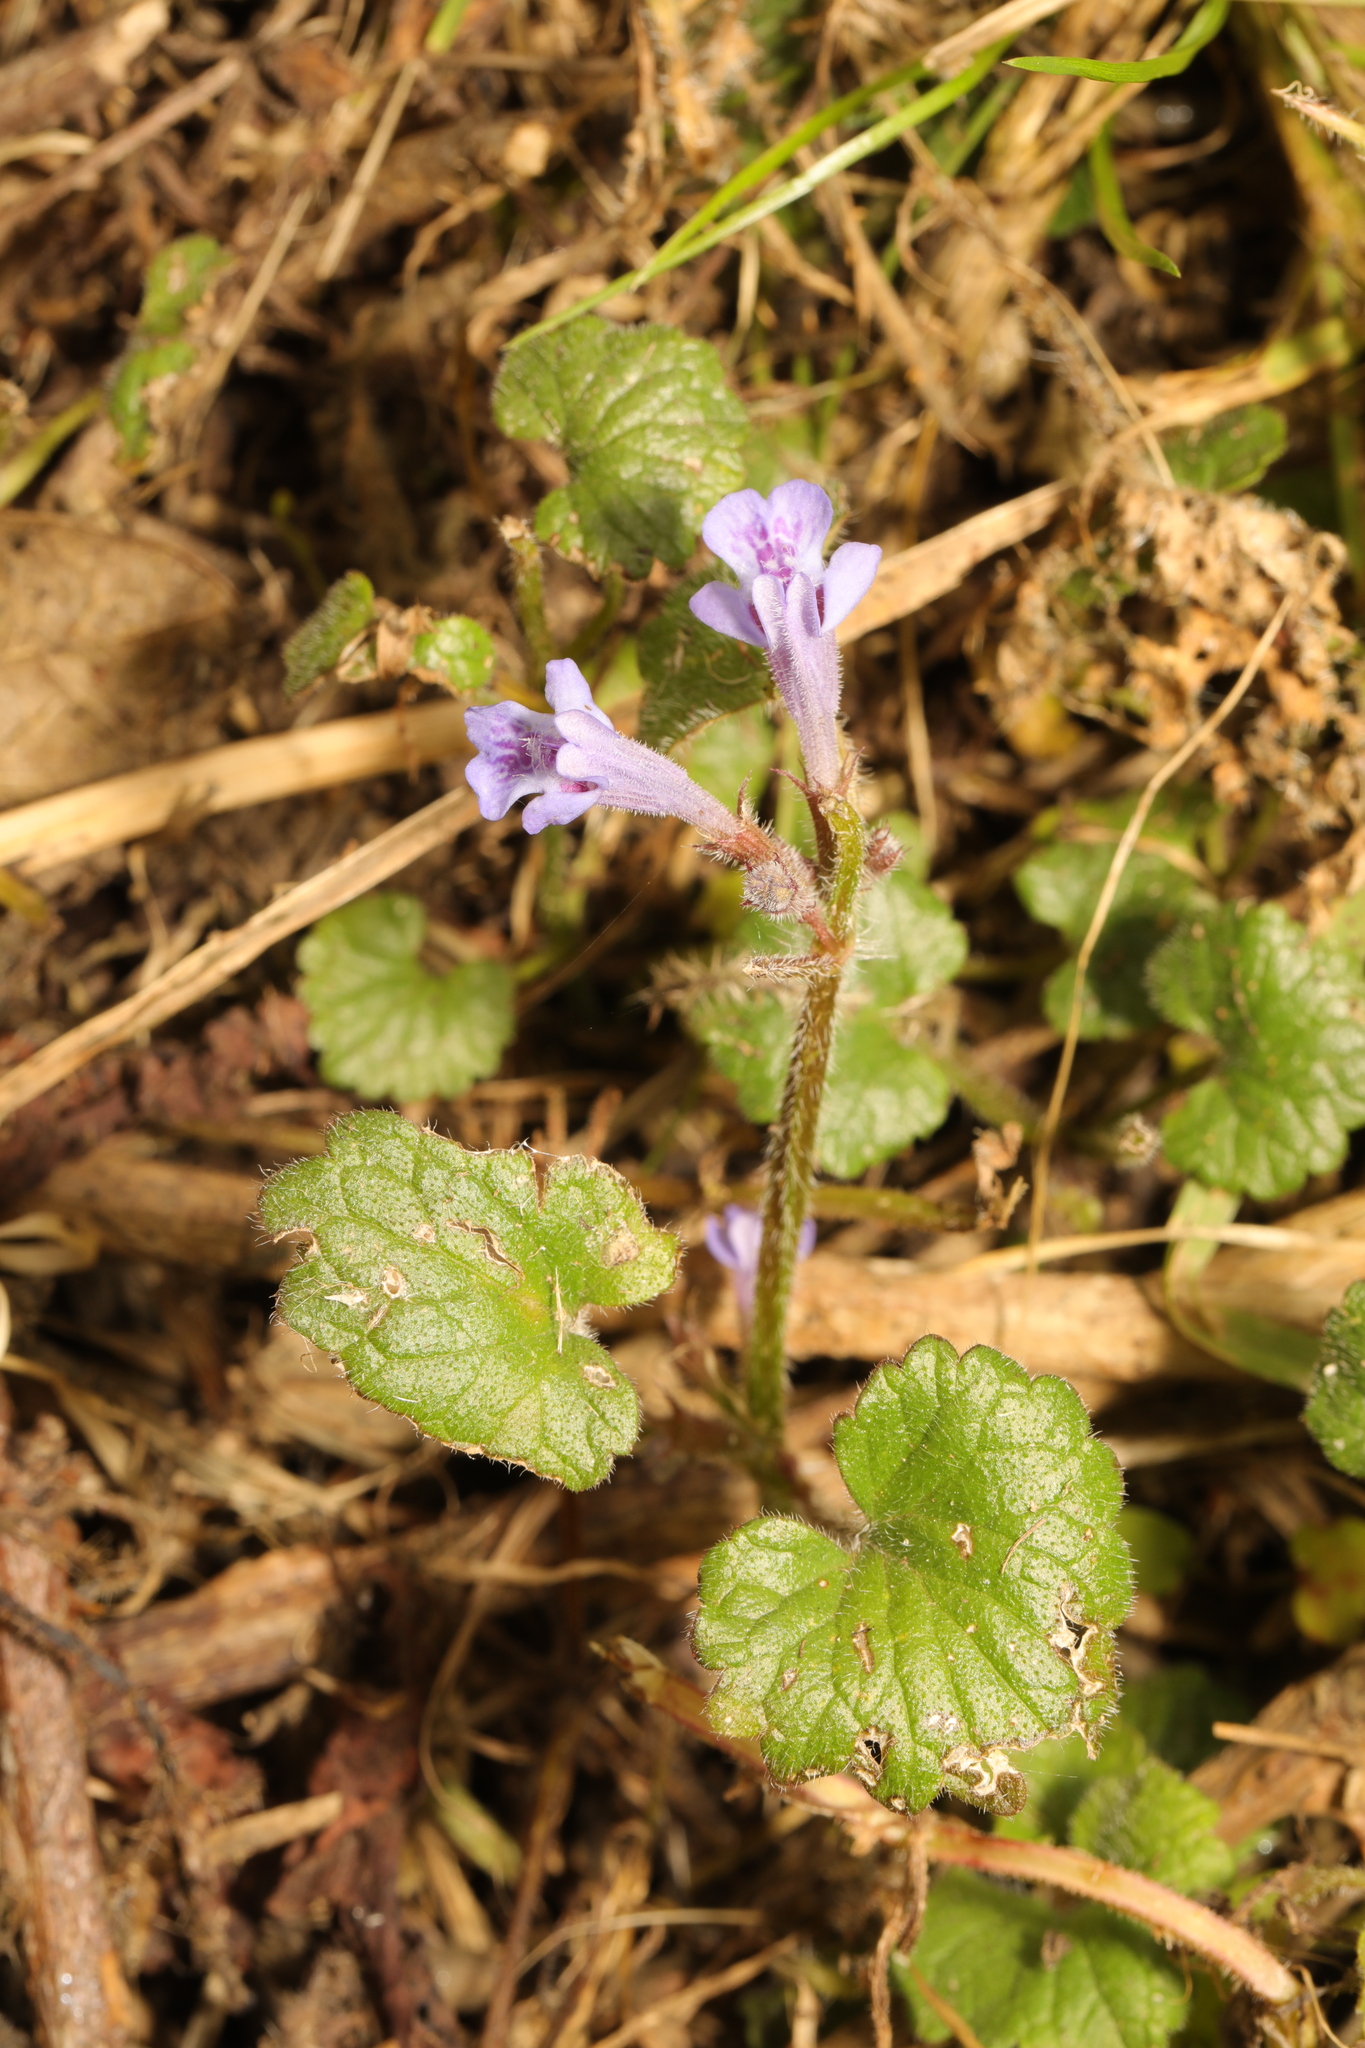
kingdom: Plantae
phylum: Tracheophyta
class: Magnoliopsida
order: Lamiales
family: Lamiaceae
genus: Glechoma
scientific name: Glechoma hederacea
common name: Ground ivy
